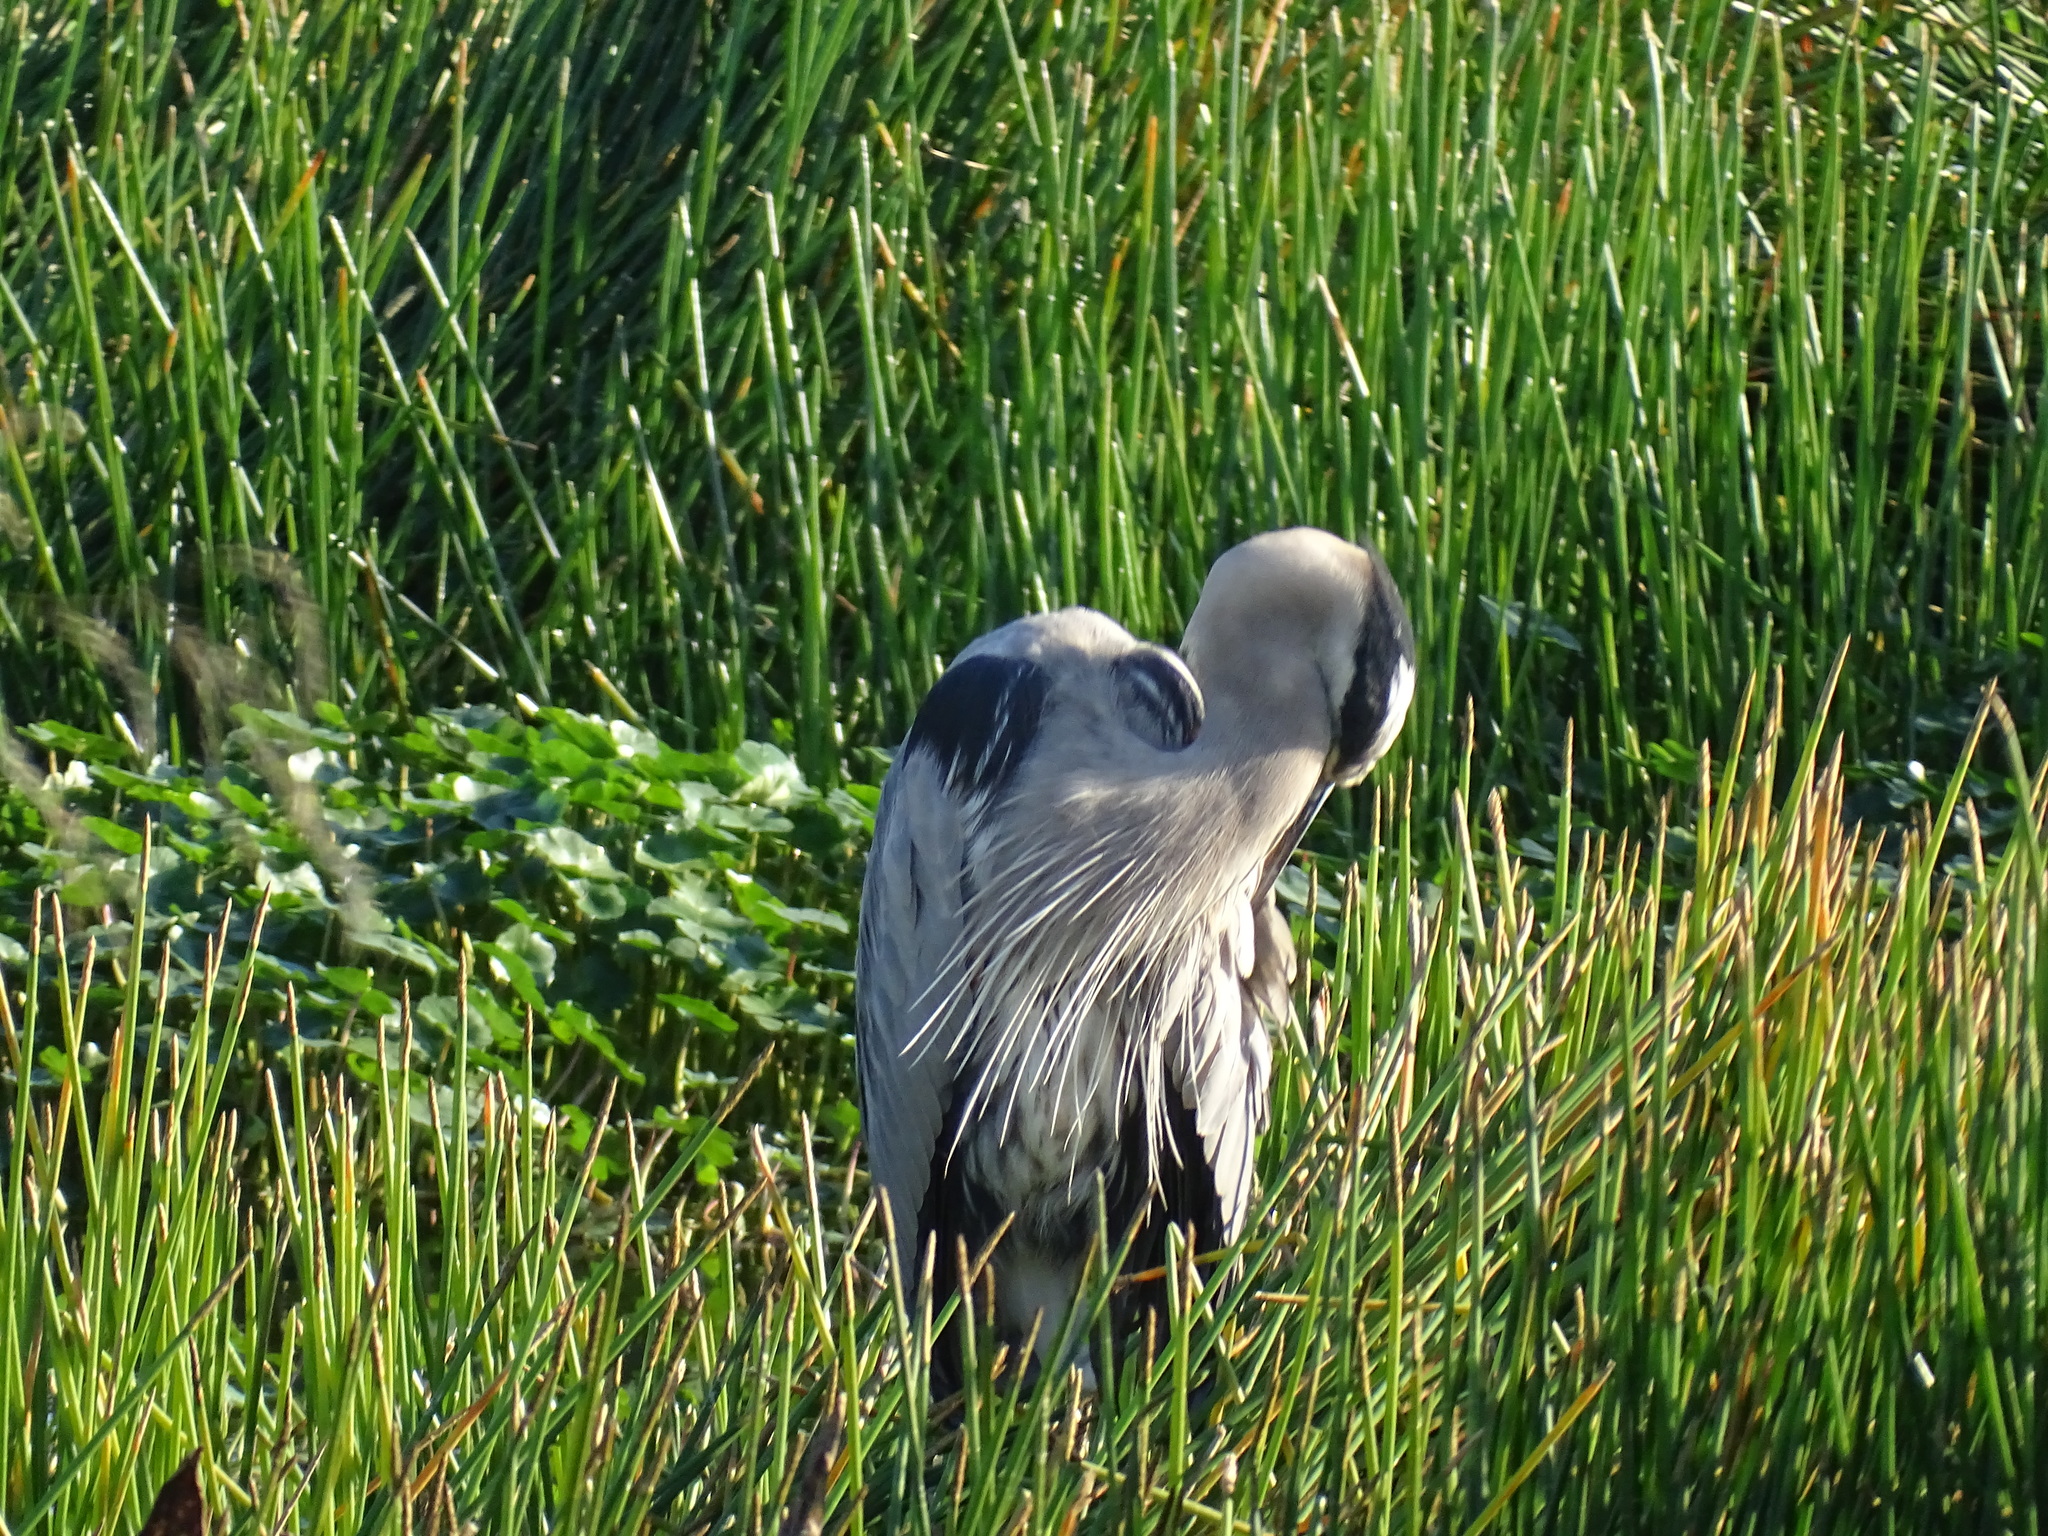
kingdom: Animalia
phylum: Chordata
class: Aves
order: Pelecaniformes
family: Ardeidae
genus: Ardea
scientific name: Ardea herodias
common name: Great blue heron
